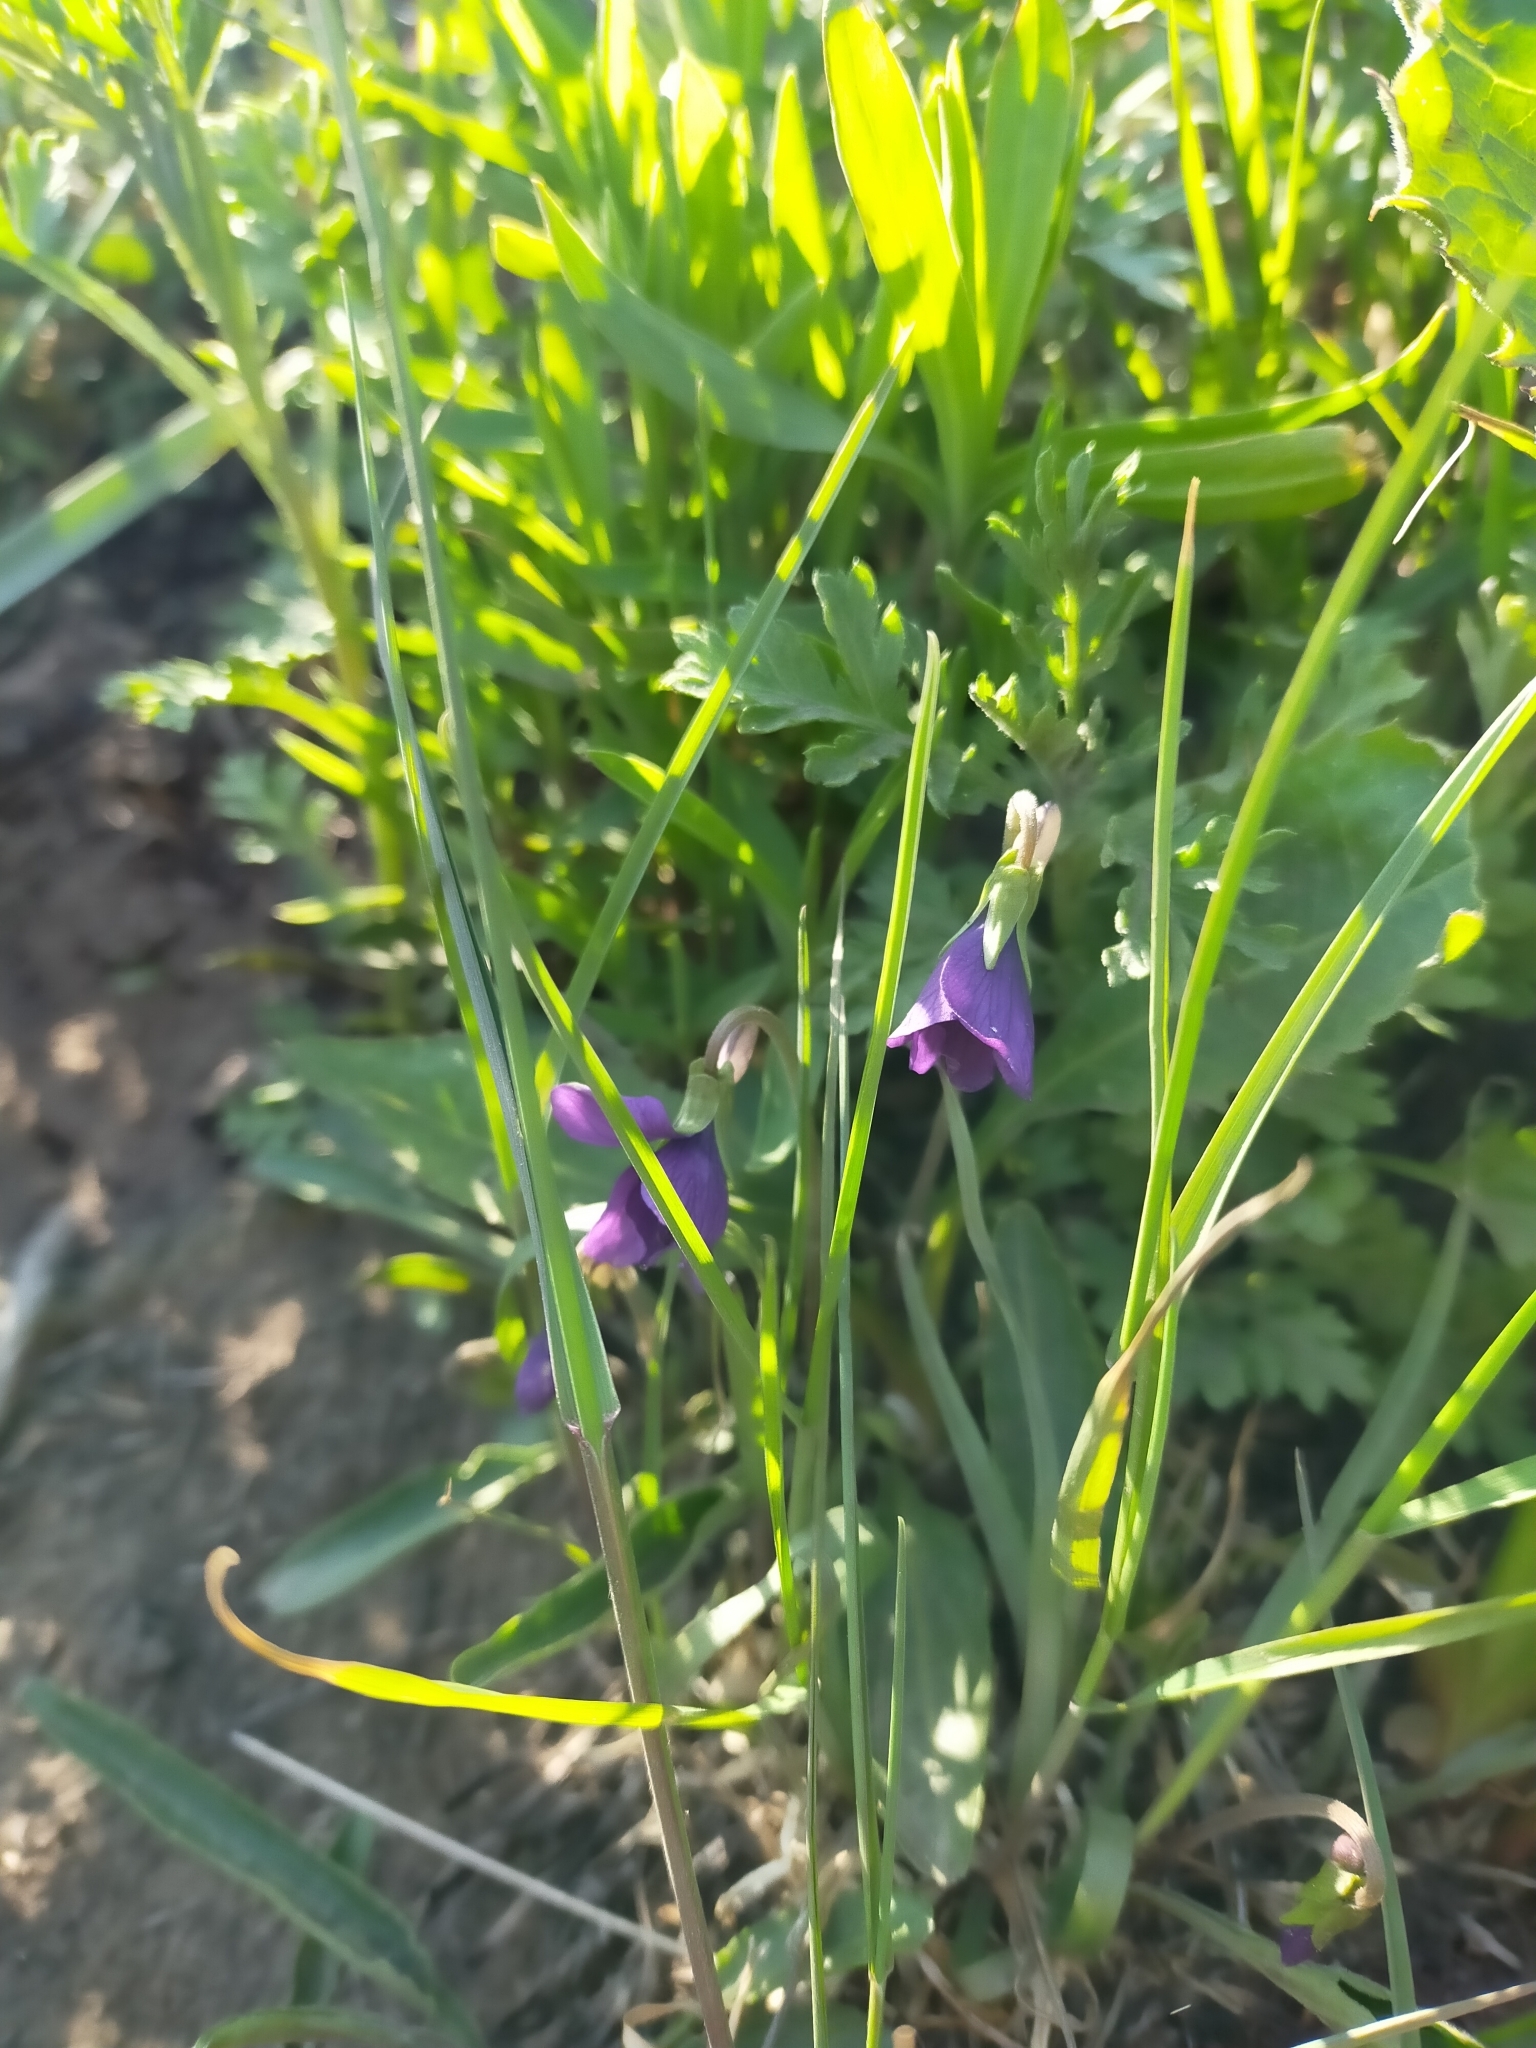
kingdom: Plantae
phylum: Tracheophyta
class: Magnoliopsida
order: Malpighiales
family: Violaceae
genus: Viola
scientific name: Viola mandshurica
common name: Manchuria violet
